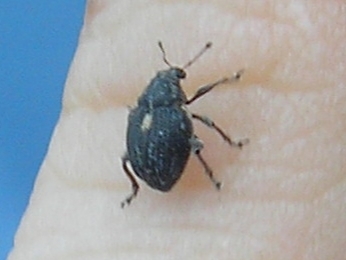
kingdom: Animalia
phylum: Arthropoda
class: Insecta
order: Coleoptera
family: Curculionidae
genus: Rhinoncus
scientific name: Rhinoncus leucostigma
